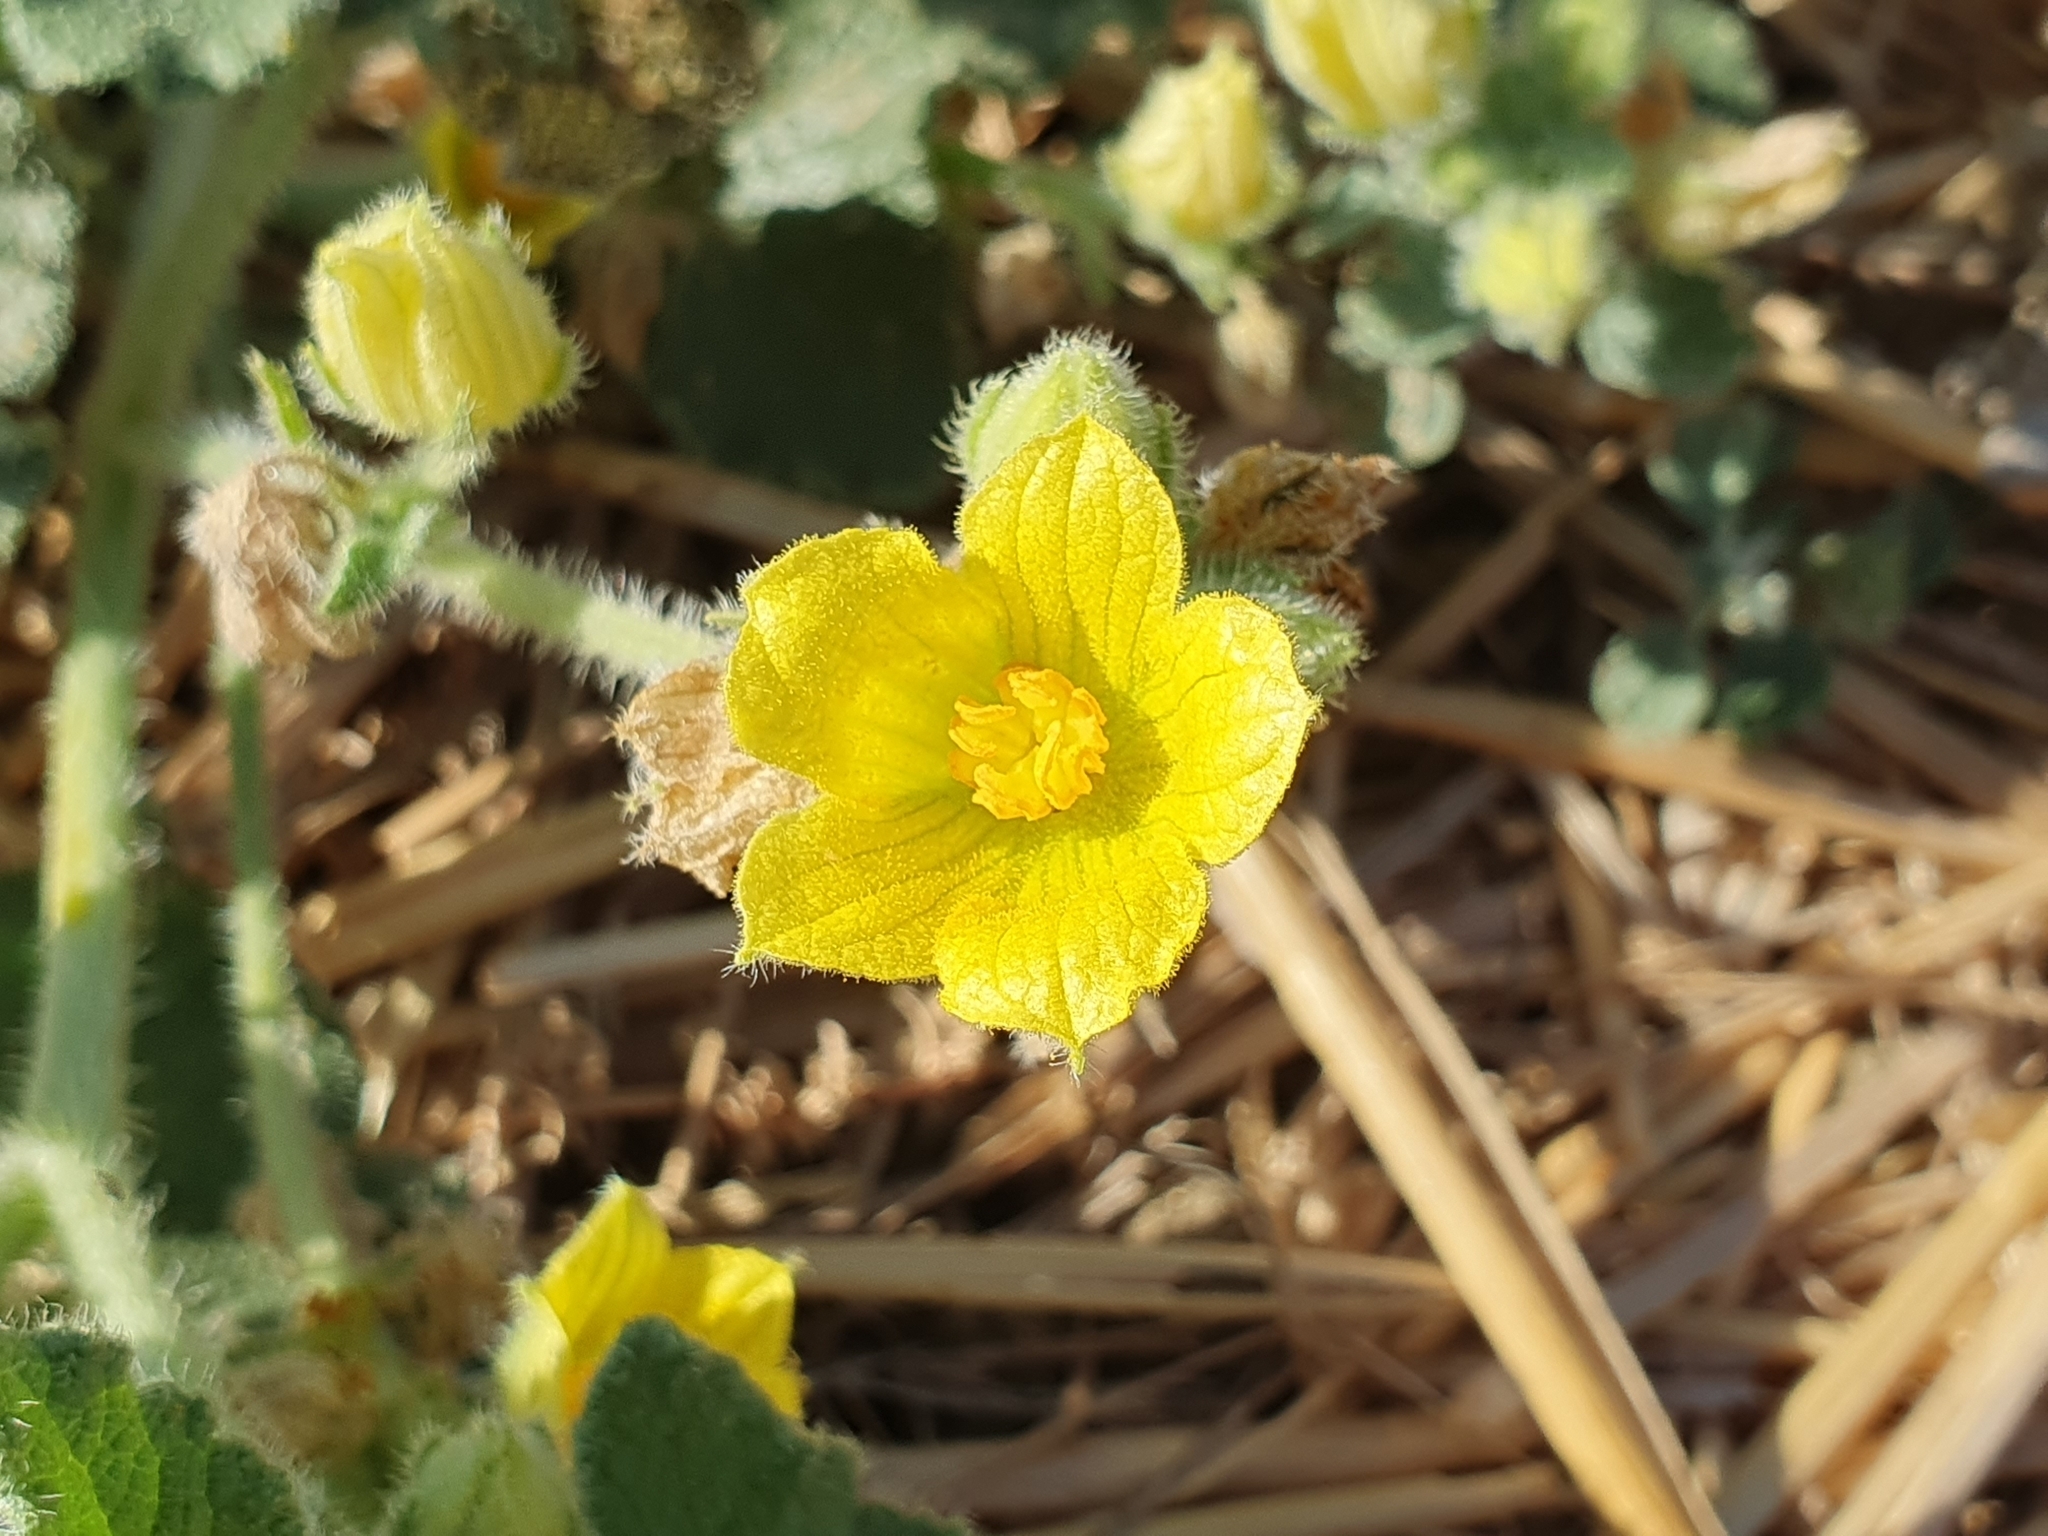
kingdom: Plantae
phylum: Tracheophyta
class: Magnoliopsida
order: Cucurbitales
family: Cucurbitaceae
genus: Ecballium
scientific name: Ecballium elaterium
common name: Squirting cucumber
